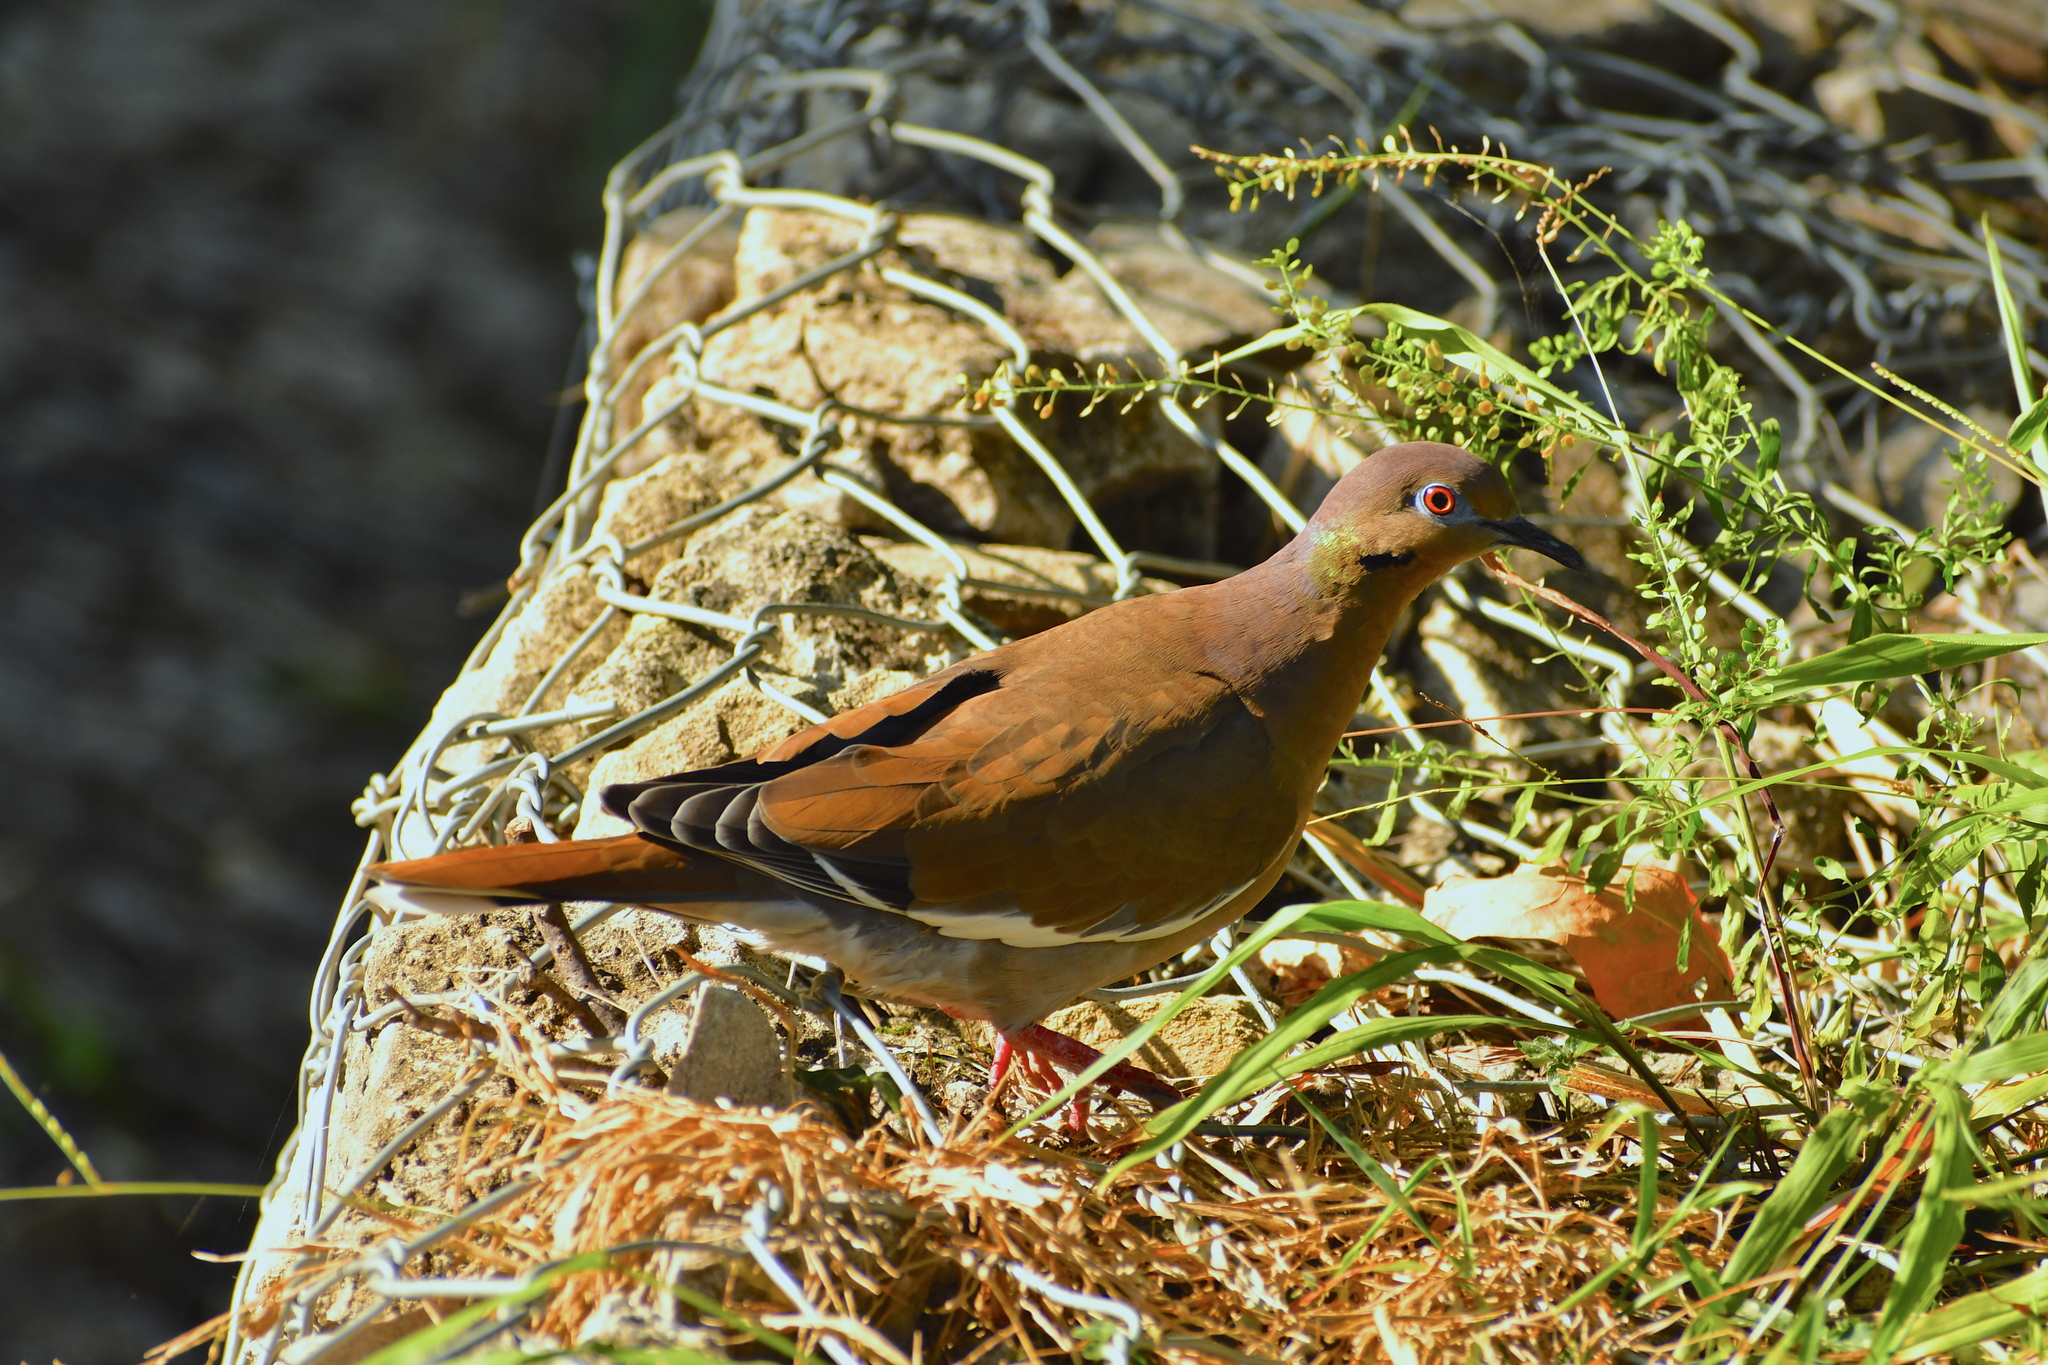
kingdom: Animalia
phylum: Chordata
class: Aves
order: Columbiformes
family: Columbidae
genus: Zenaida
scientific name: Zenaida asiatica
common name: White-winged dove
